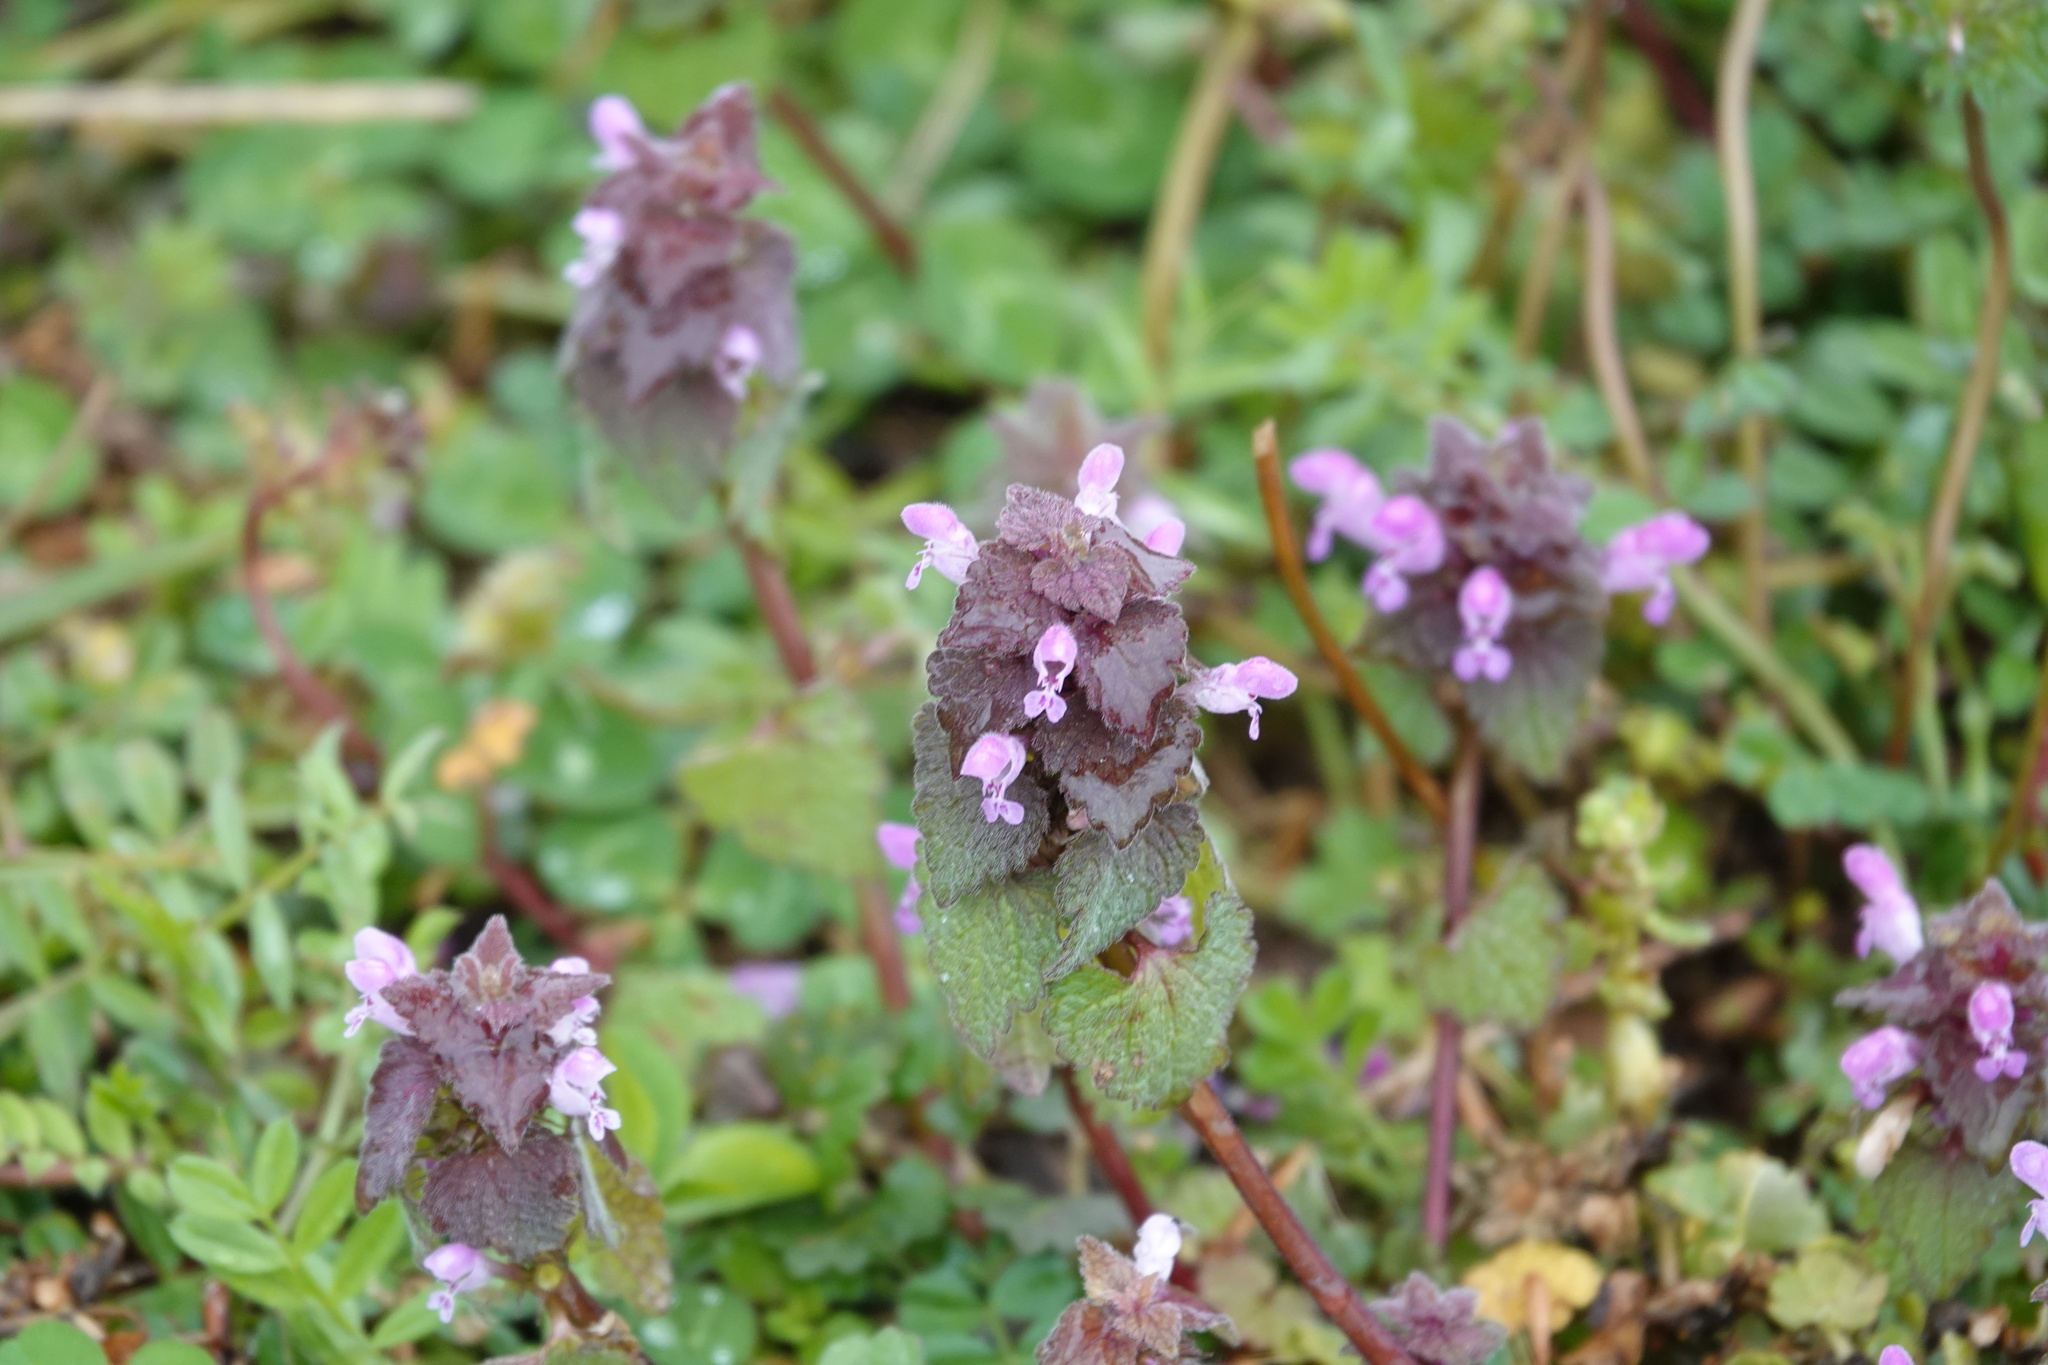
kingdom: Plantae
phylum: Tracheophyta
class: Magnoliopsida
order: Lamiales
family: Lamiaceae
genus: Lamium
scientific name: Lamium purpureum
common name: Red dead-nettle
